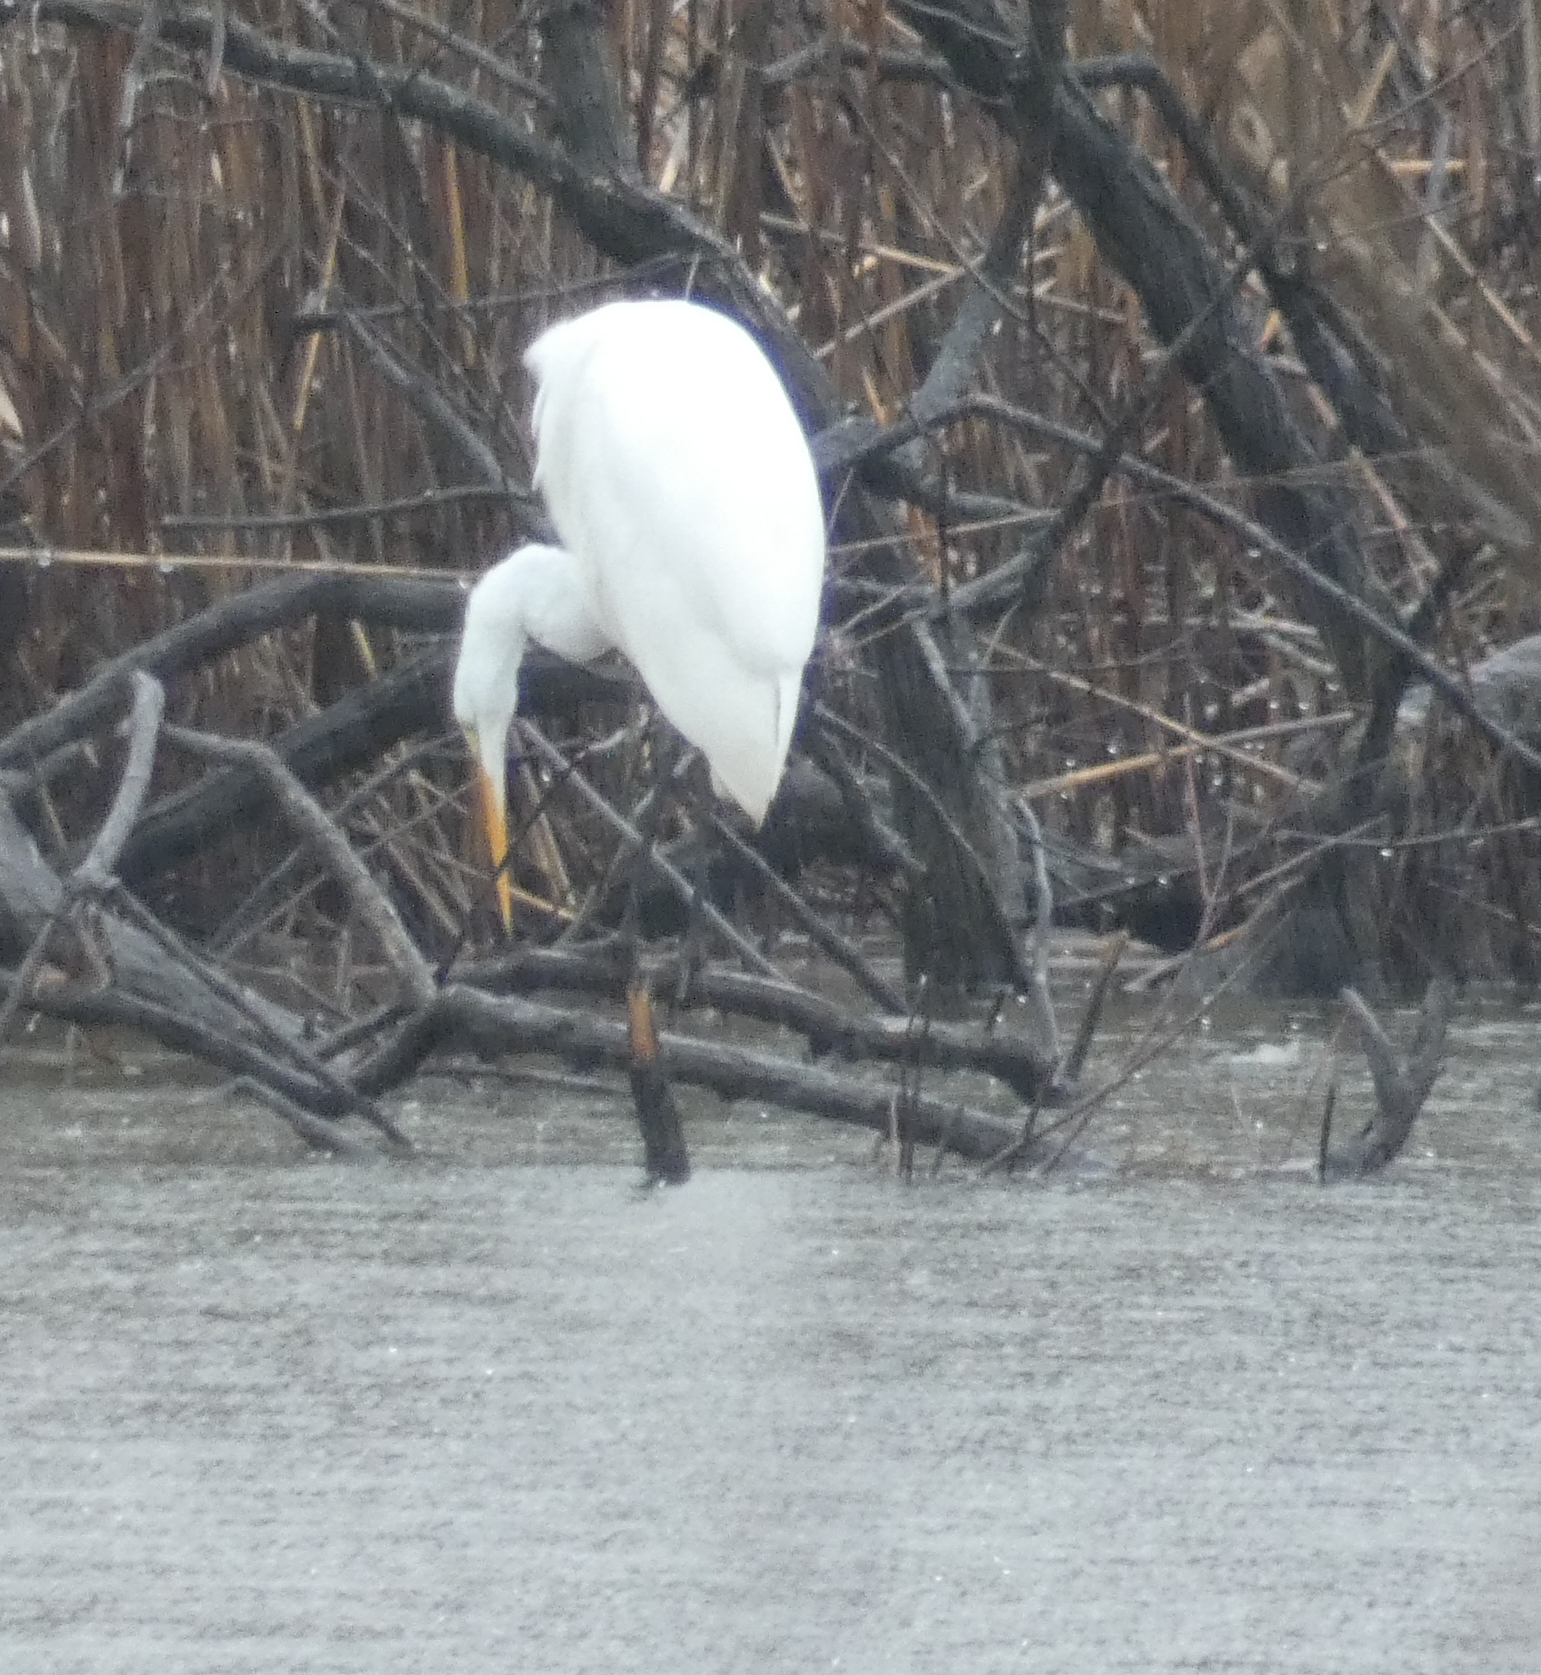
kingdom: Animalia
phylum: Chordata
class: Aves
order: Pelecaniformes
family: Ardeidae
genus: Ardea
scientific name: Ardea alba
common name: Great egret
